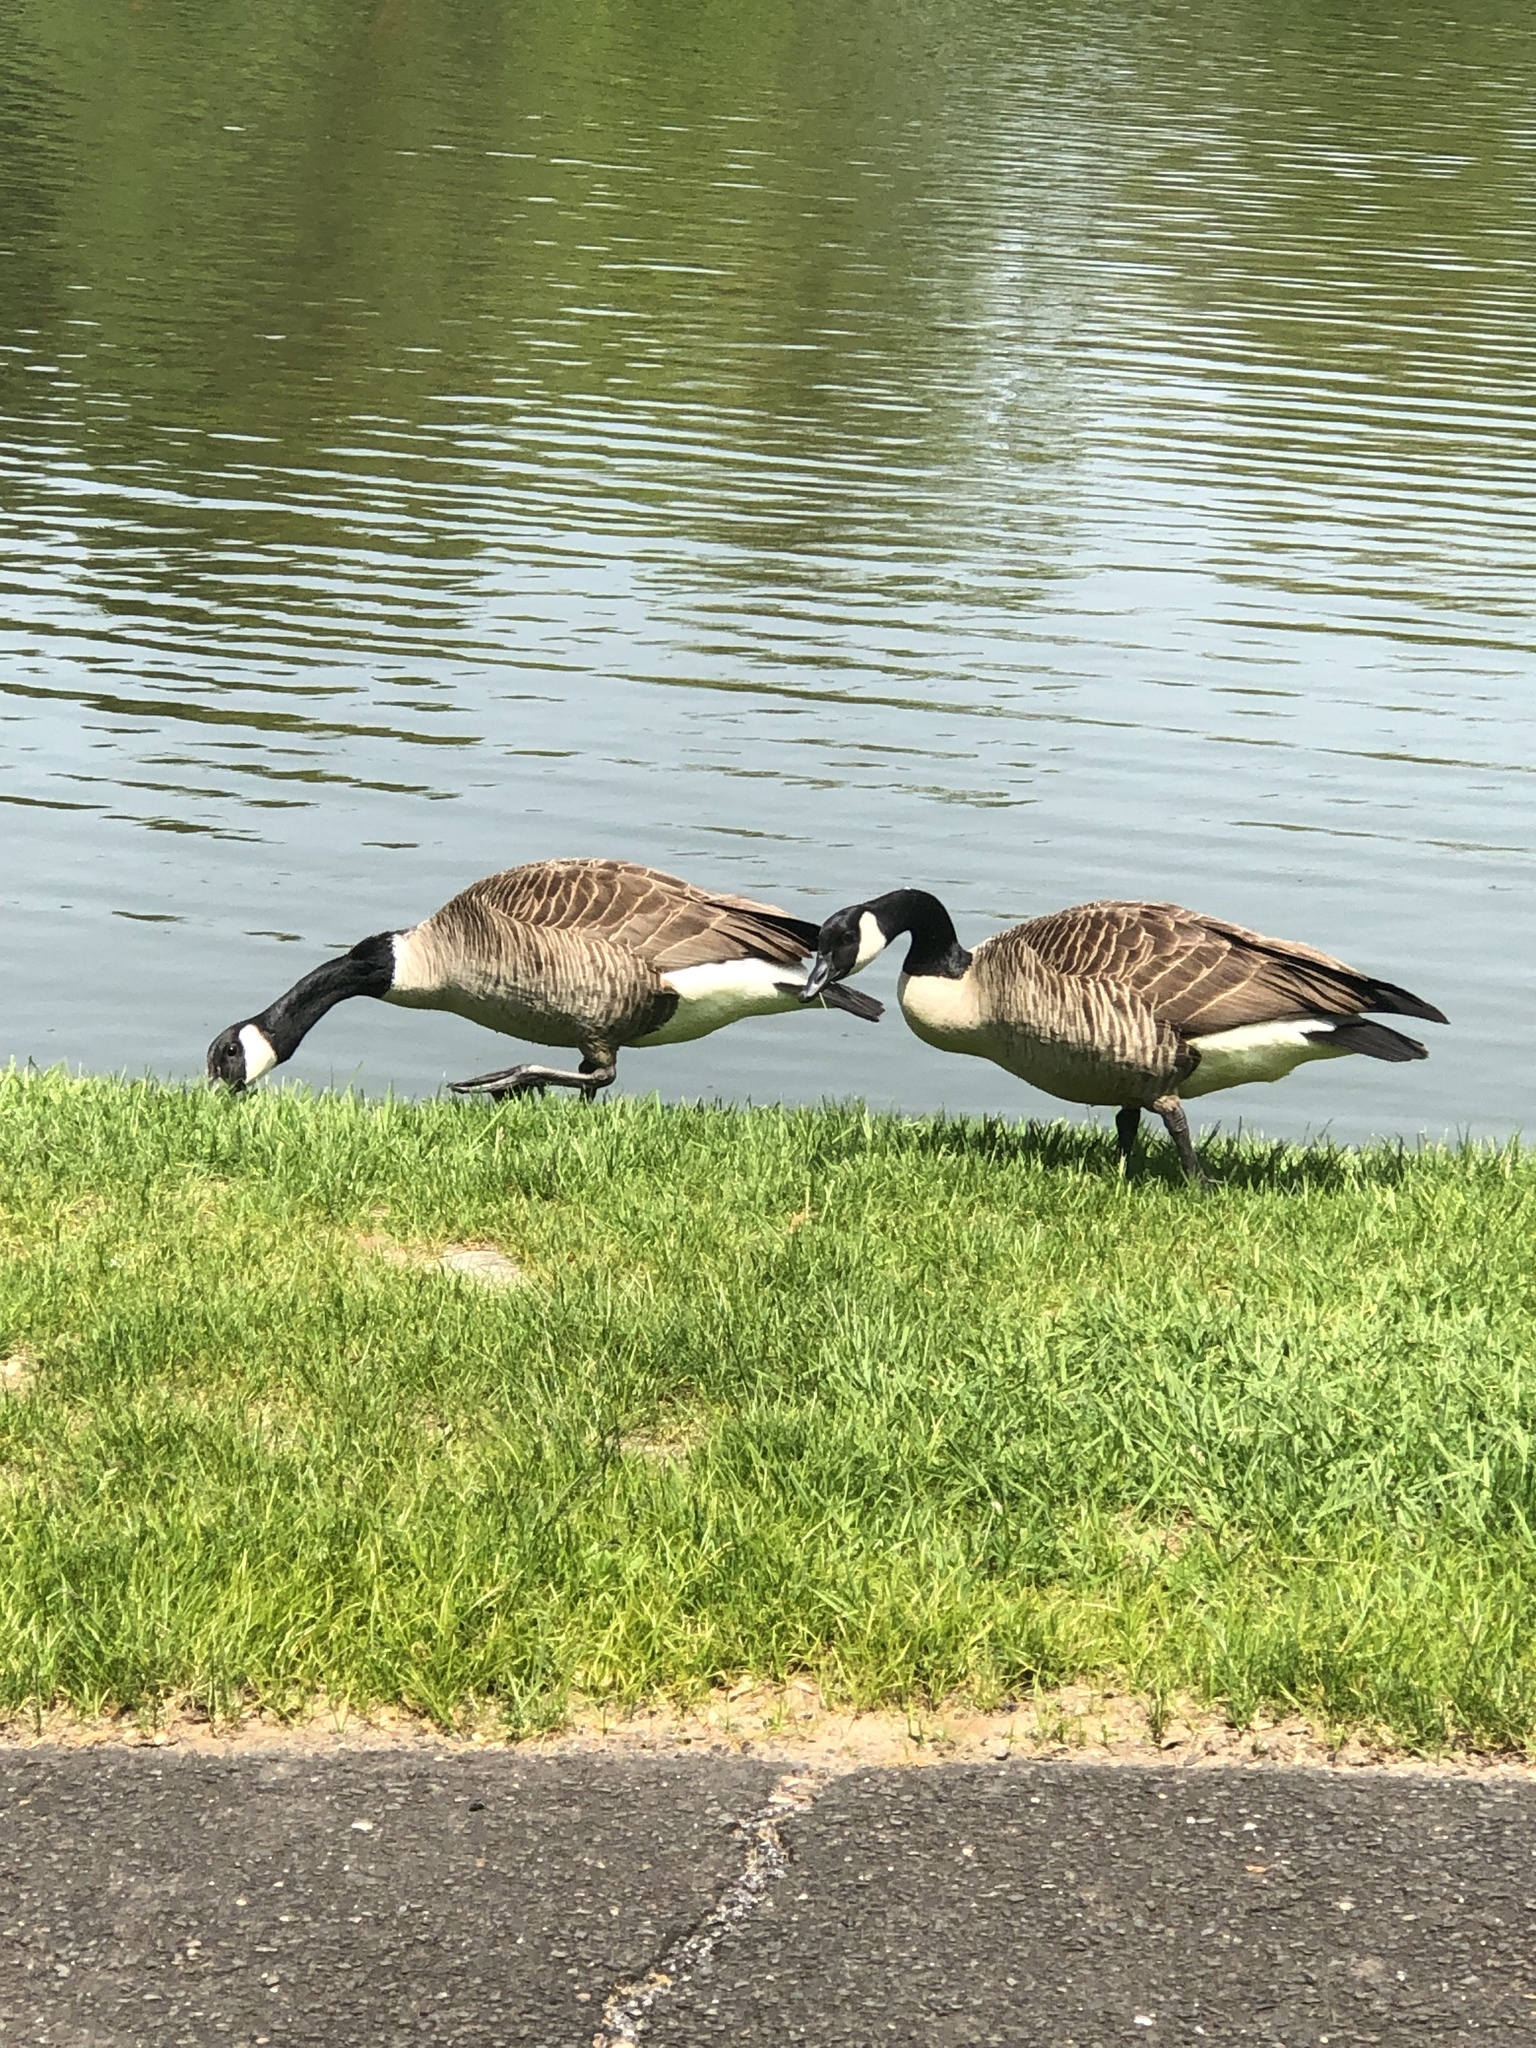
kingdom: Animalia
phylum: Chordata
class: Aves
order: Anseriformes
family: Anatidae
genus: Branta
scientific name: Branta canadensis
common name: Canada goose
